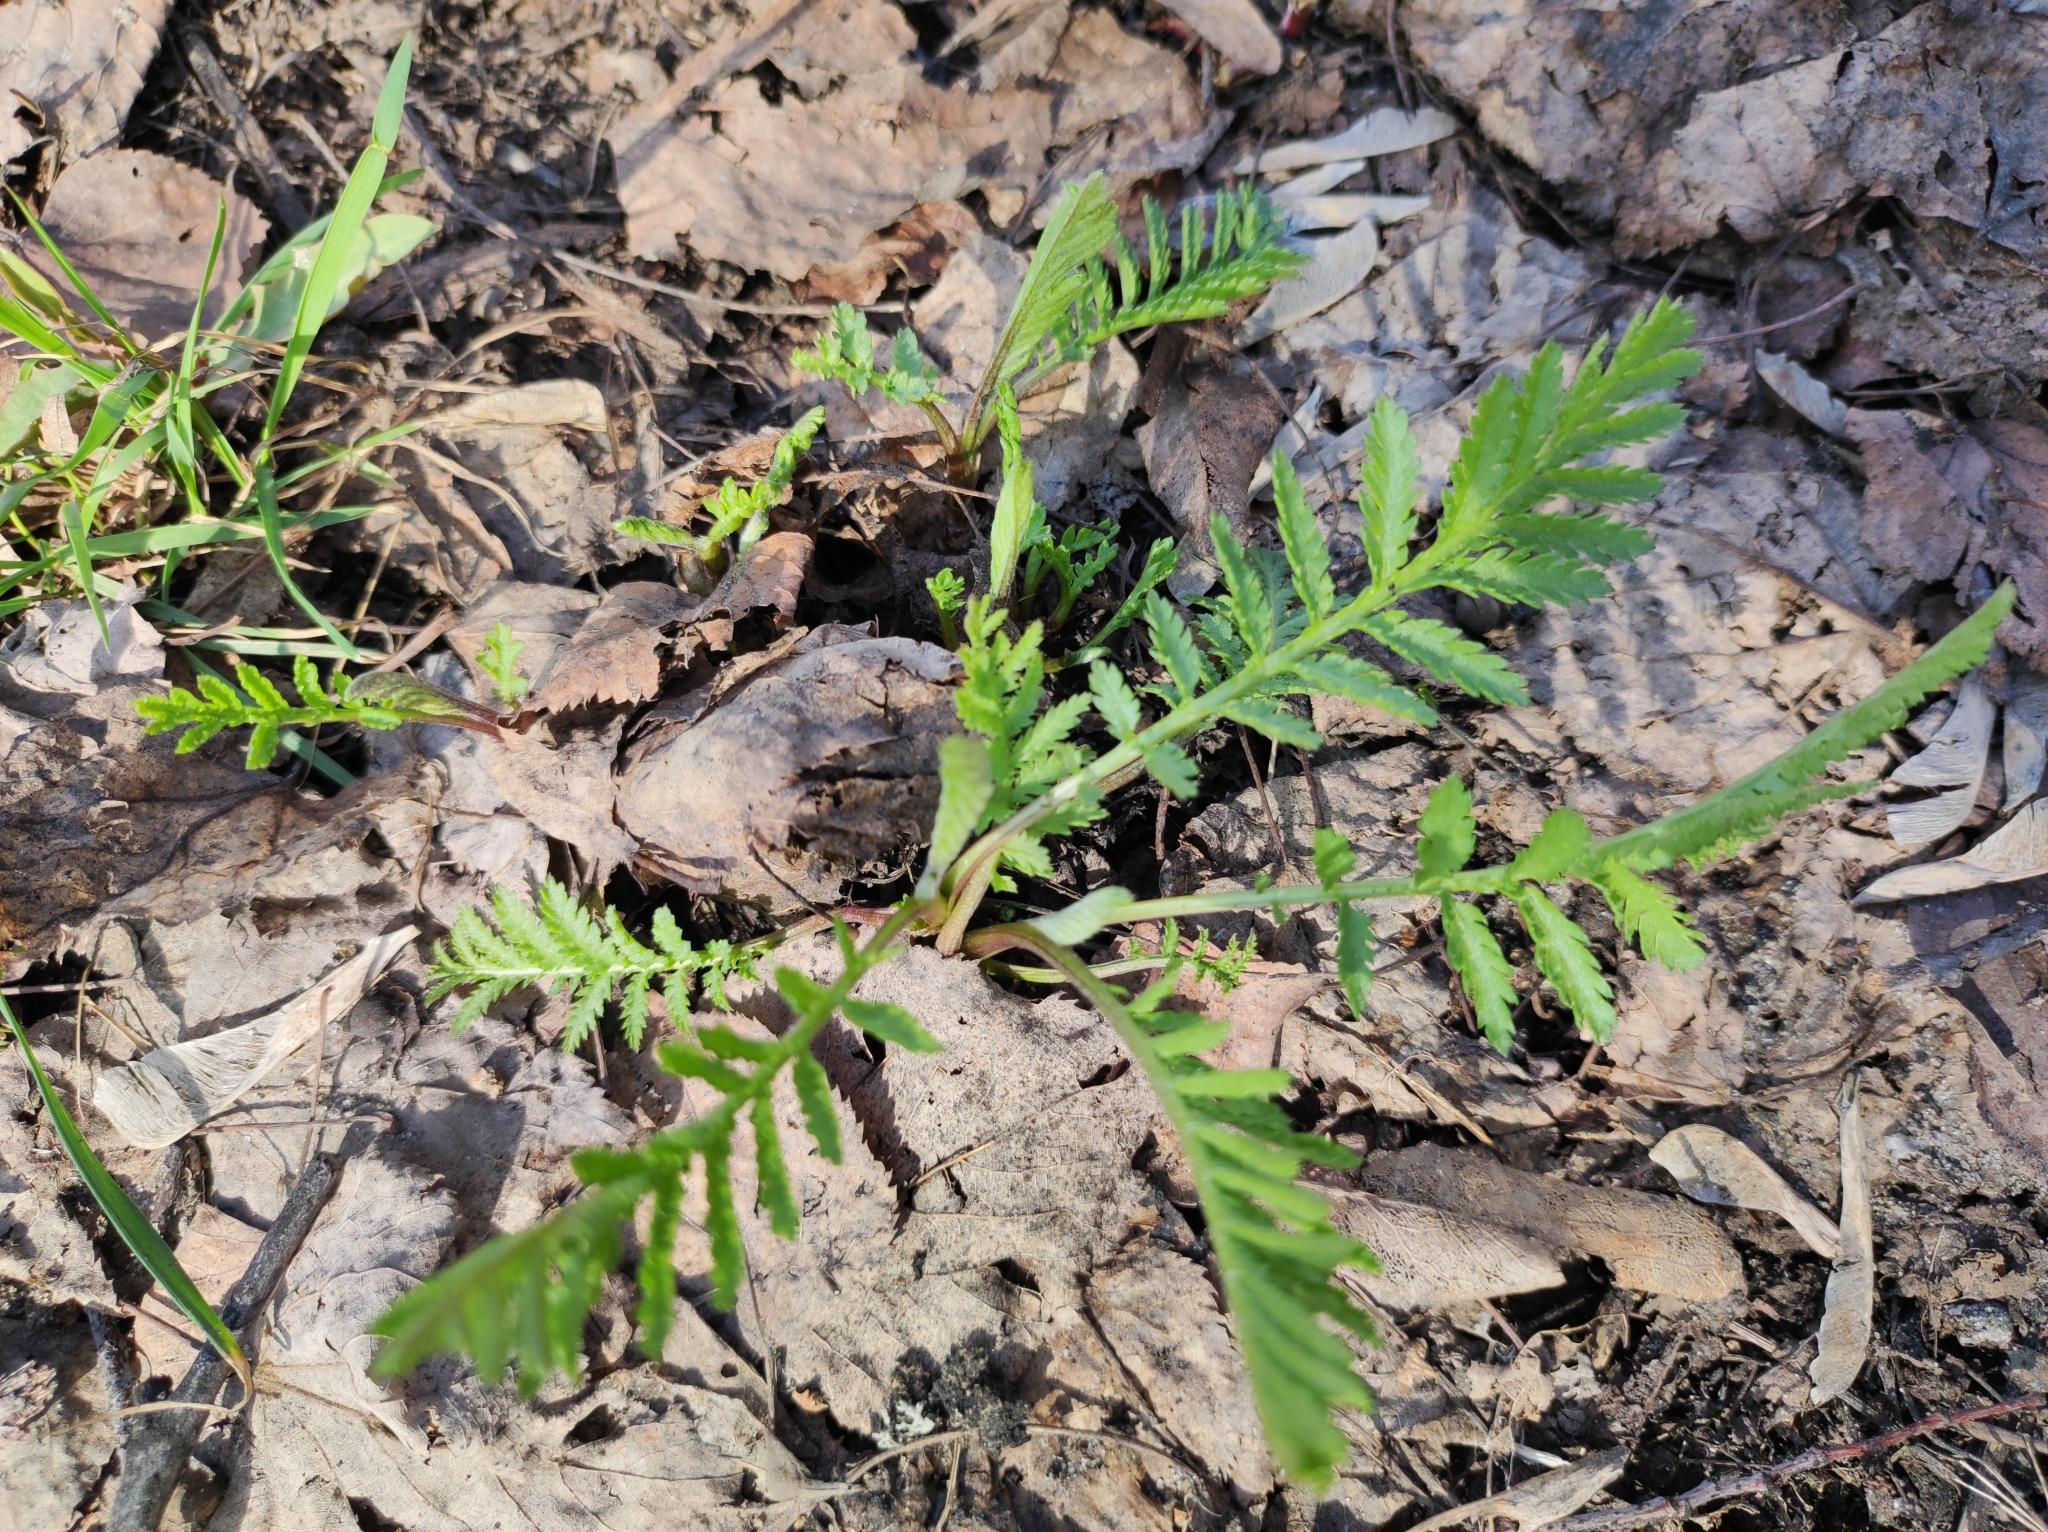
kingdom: Plantae
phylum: Tracheophyta
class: Magnoliopsida
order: Asterales
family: Asteraceae
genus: Tanacetum
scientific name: Tanacetum vulgare
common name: Common tansy
